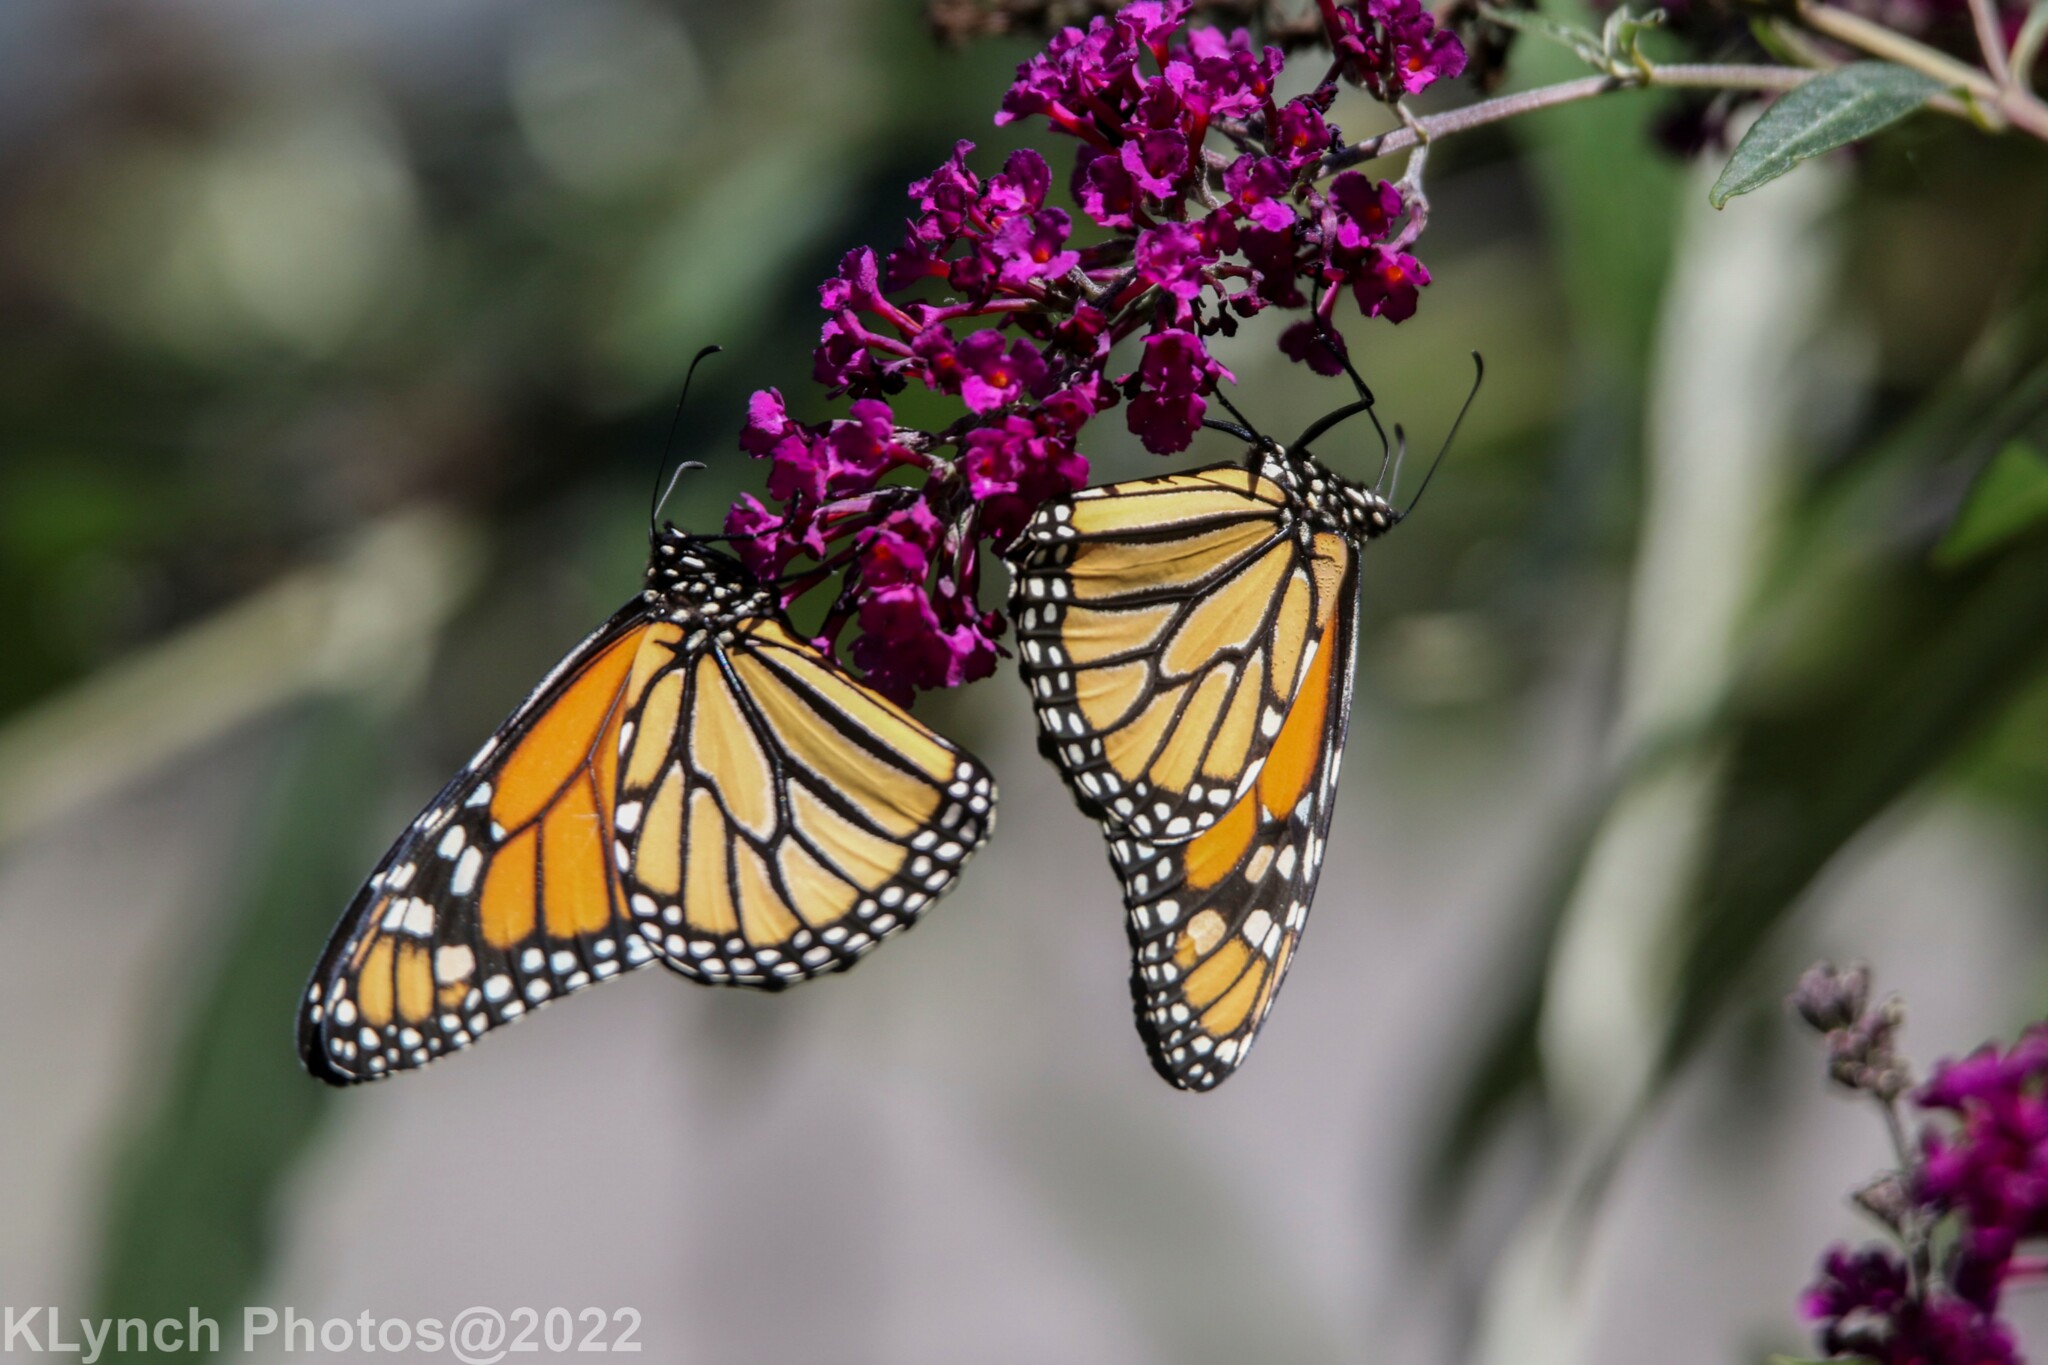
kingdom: Animalia
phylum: Arthropoda
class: Insecta
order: Lepidoptera
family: Nymphalidae
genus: Danaus
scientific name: Danaus plexippus
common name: Monarch
